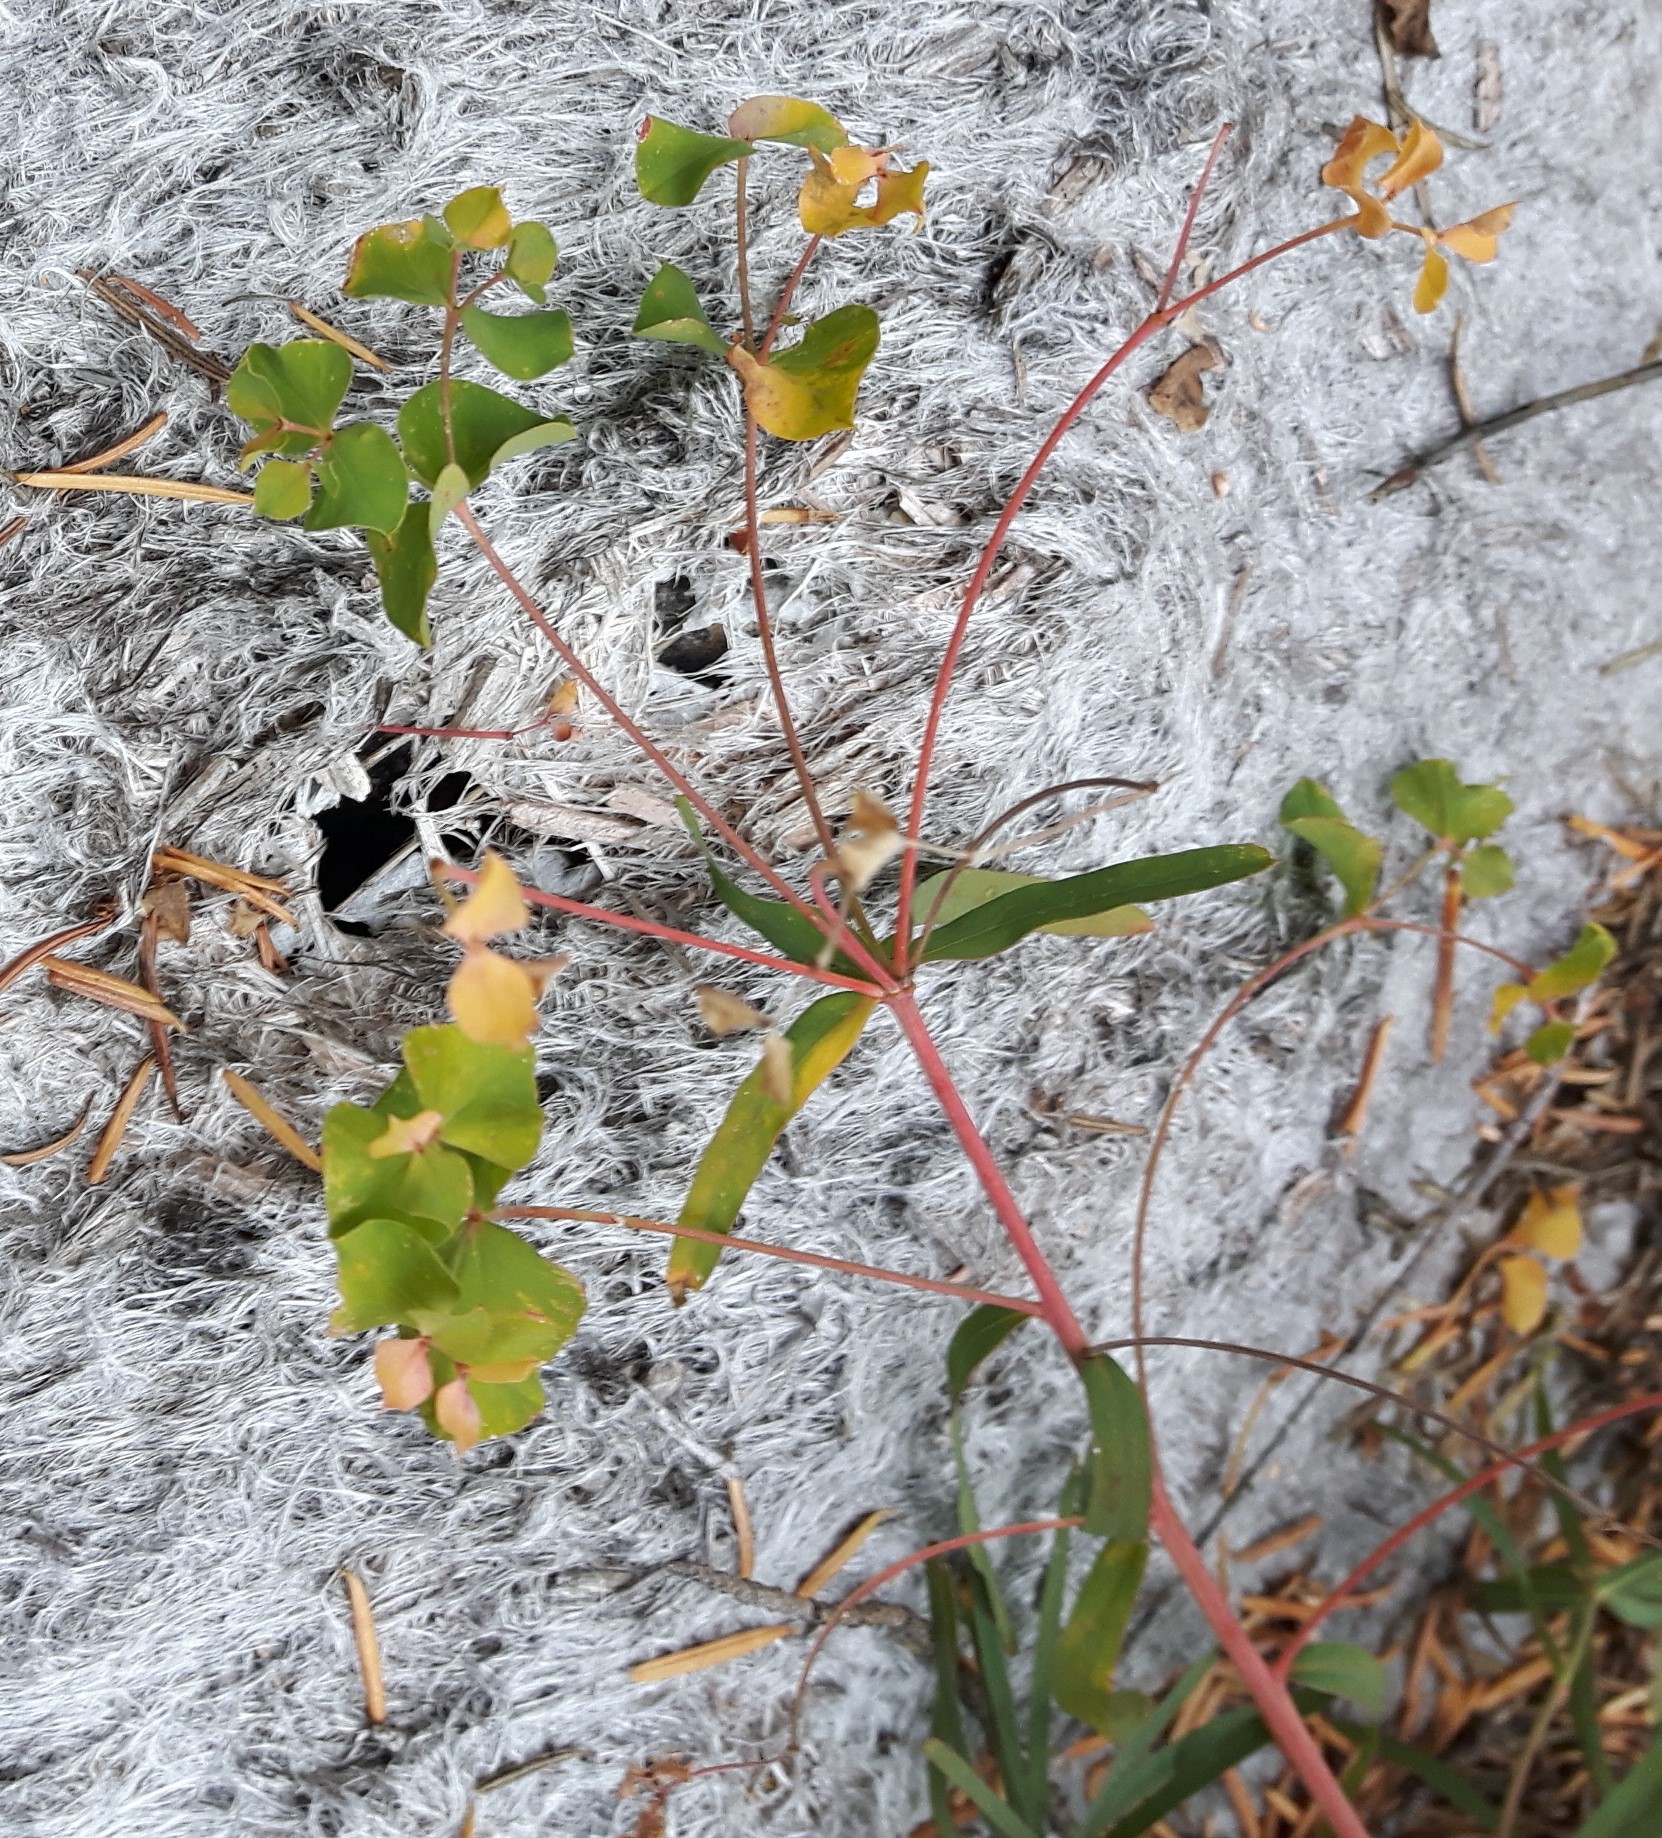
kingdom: Plantae
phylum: Tracheophyta
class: Magnoliopsida
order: Malpighiales
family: Euphorbiaceae
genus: Euphorbia
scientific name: Euphorbia virgata
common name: Leafy spurge
